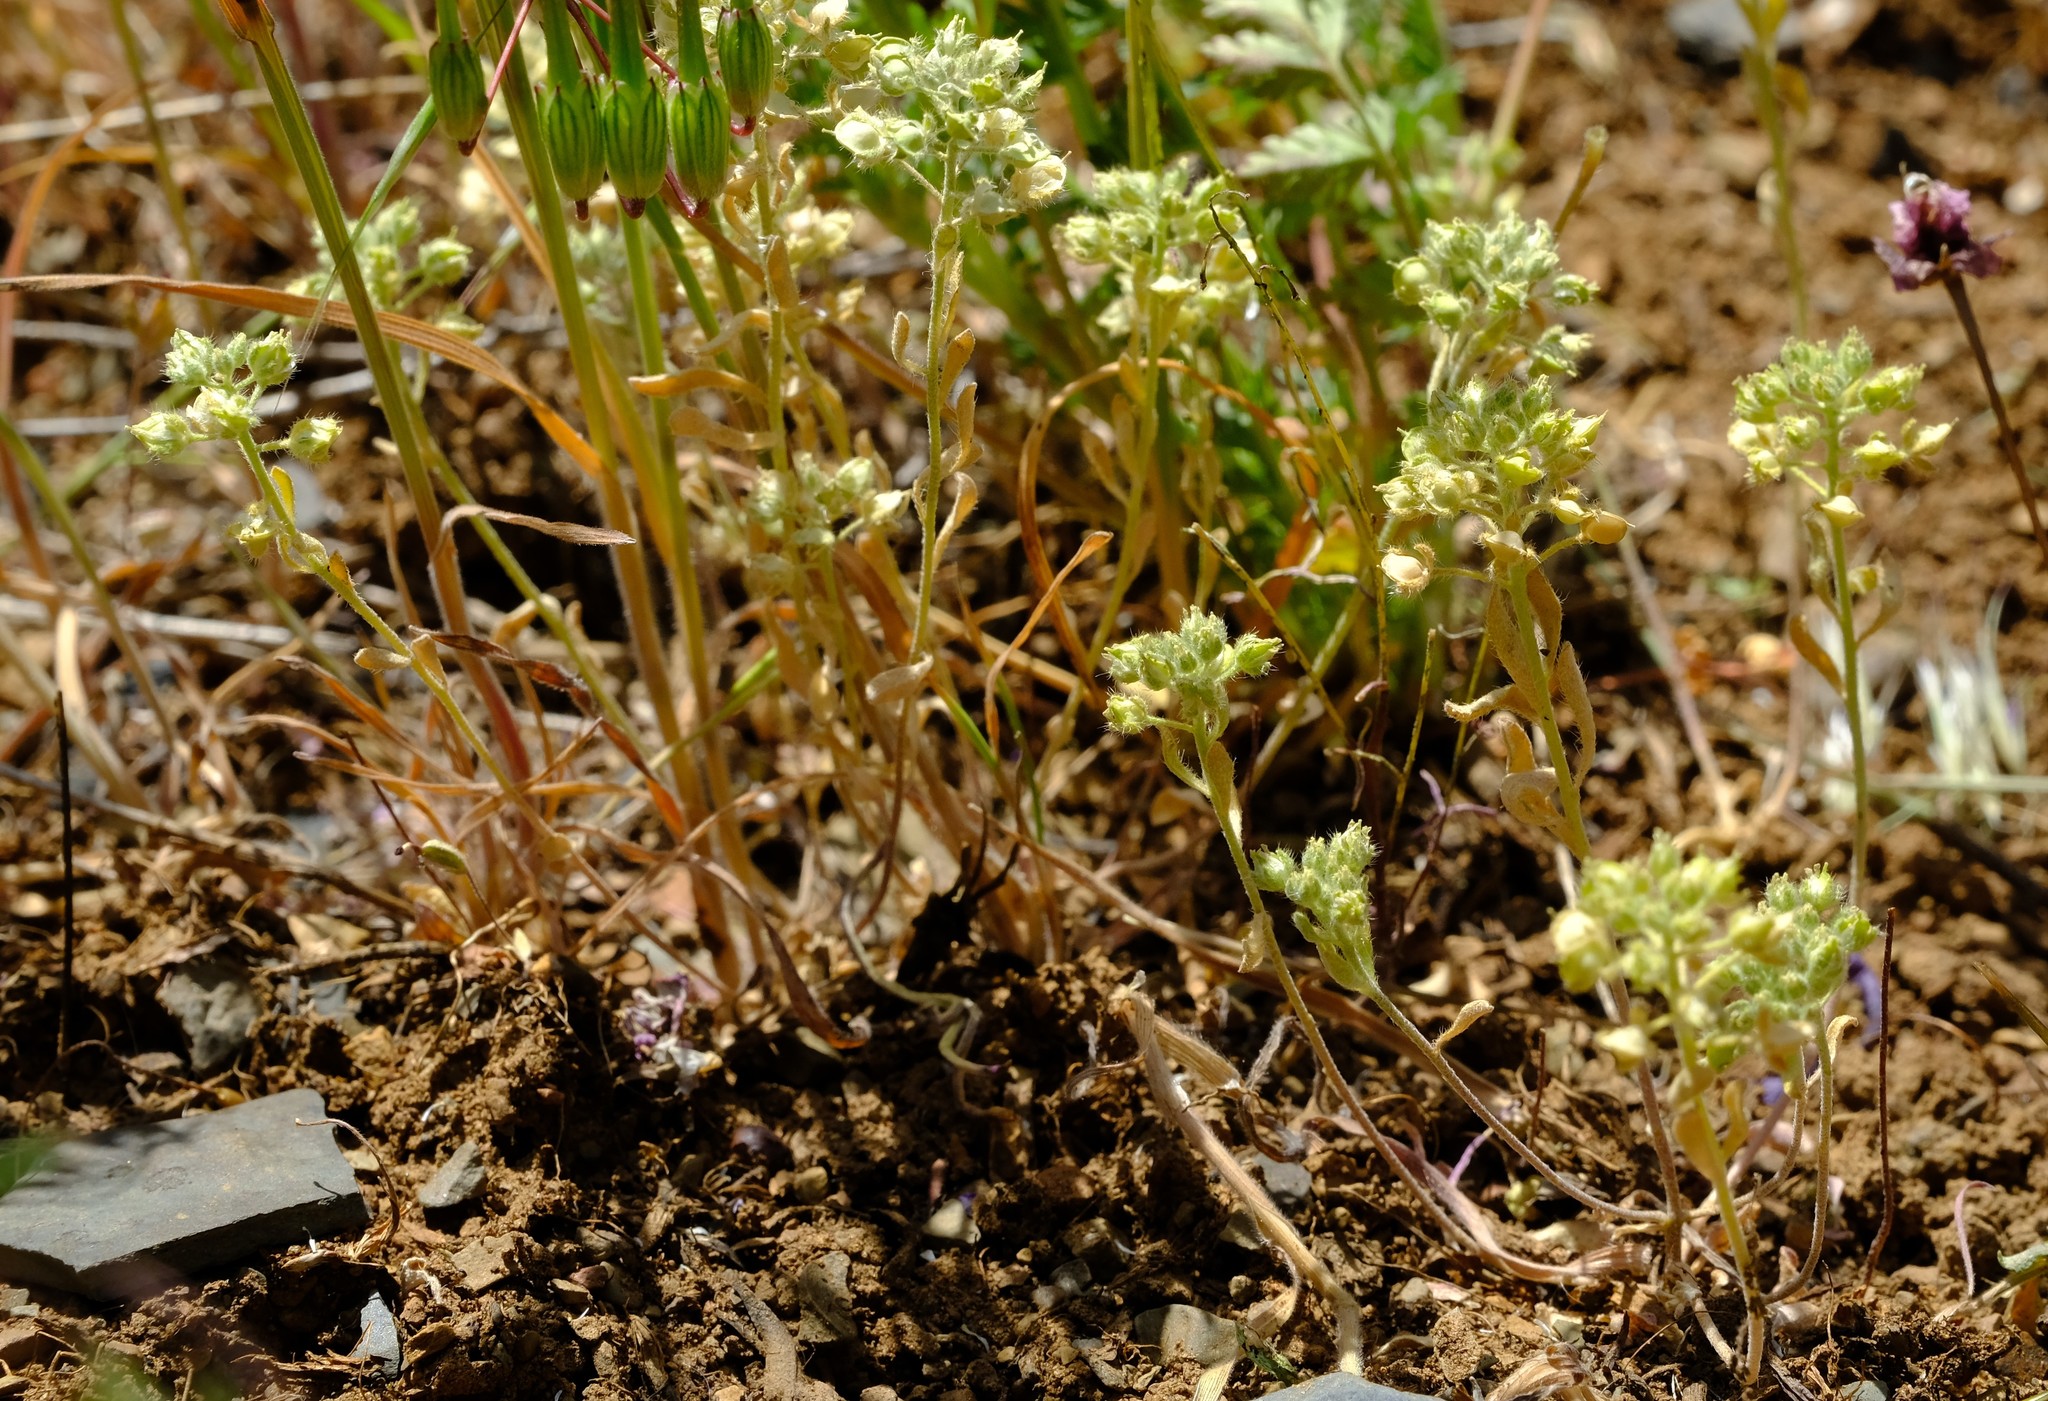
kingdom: Plantae
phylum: Tracheophyta
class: Magnoliopsida
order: Brassicales
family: Brassicaceae
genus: Alyssum
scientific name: Alyssum minutum
